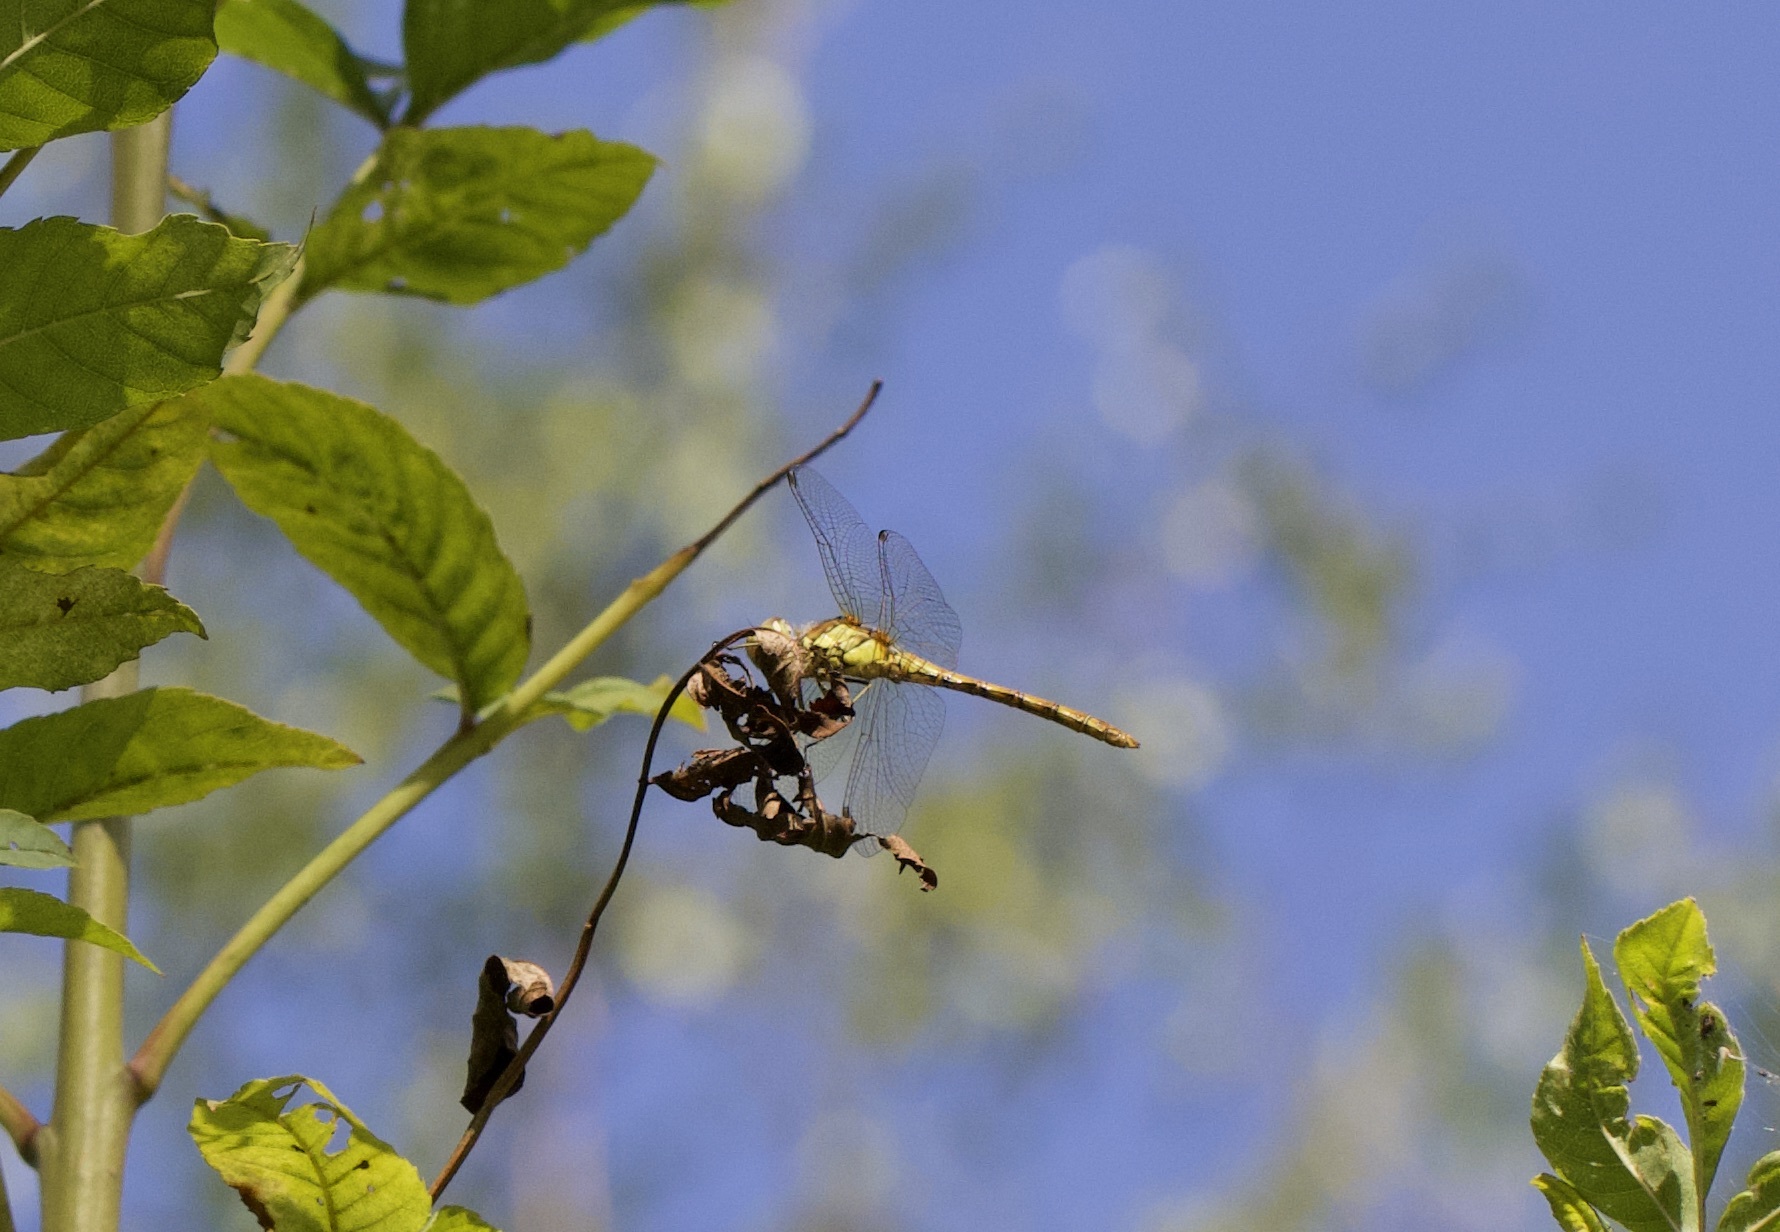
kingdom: Animalia
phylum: Arthropoda
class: Insecta
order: Odonata
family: Libellulidae
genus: Sympetrum
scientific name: Sympetrum striolatum
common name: Common darter
